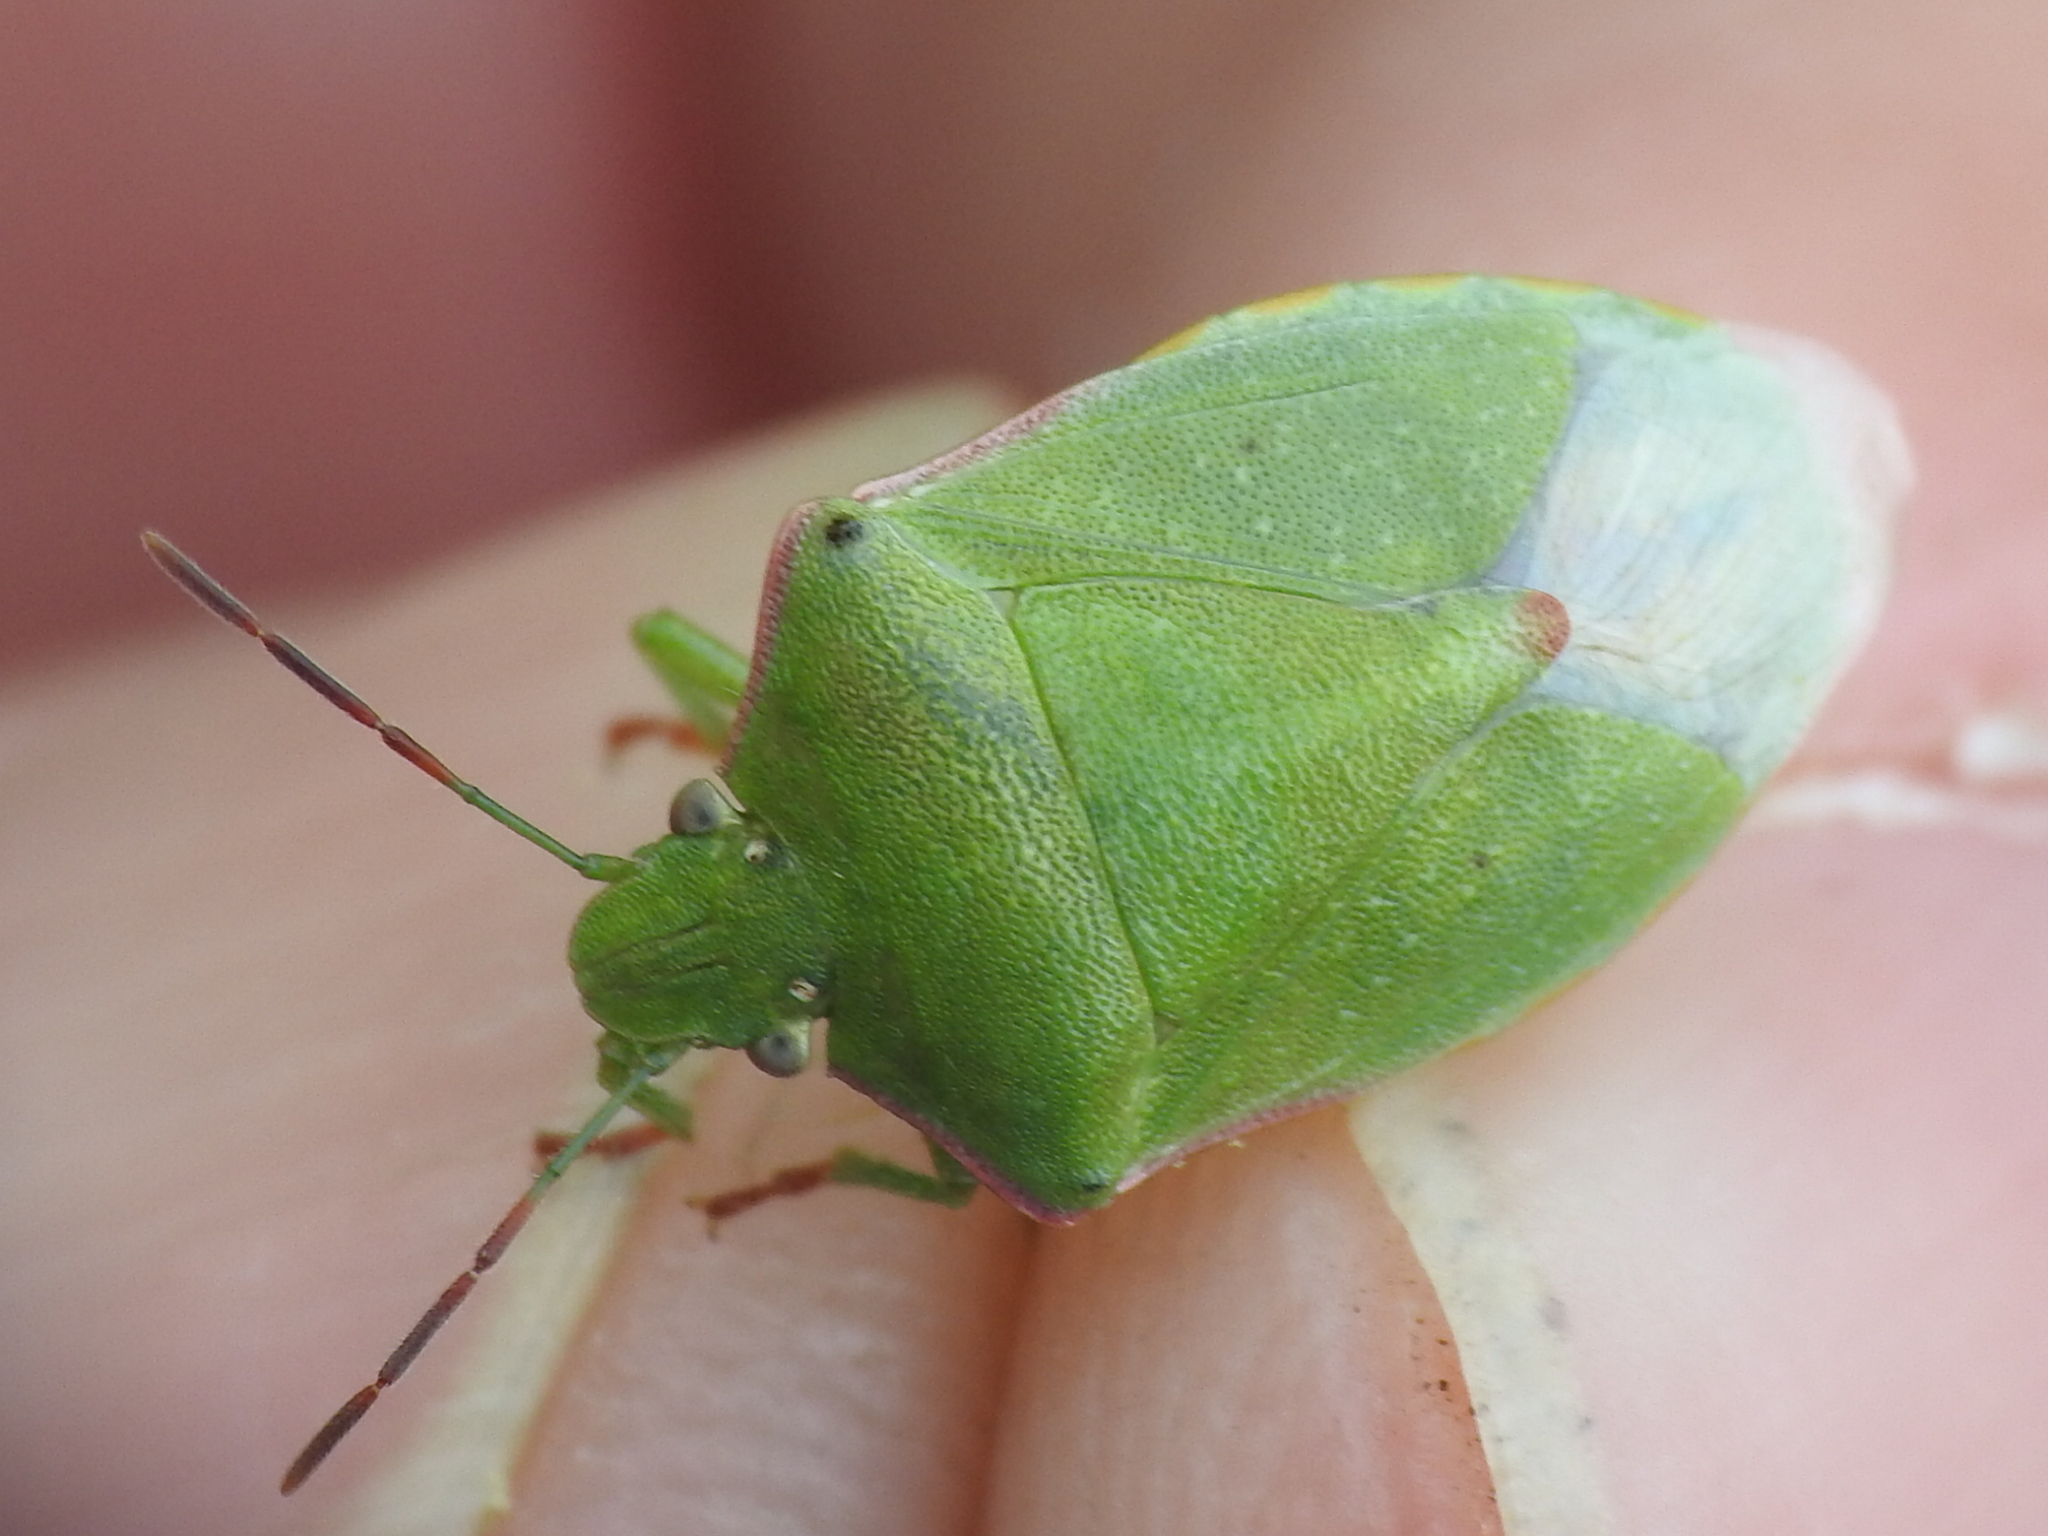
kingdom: Animalia
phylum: Arthropoda
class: Insecta
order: Hemiptera
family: Pentatomidae
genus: Thyanta
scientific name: Thyanta accerra
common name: Stink bug
